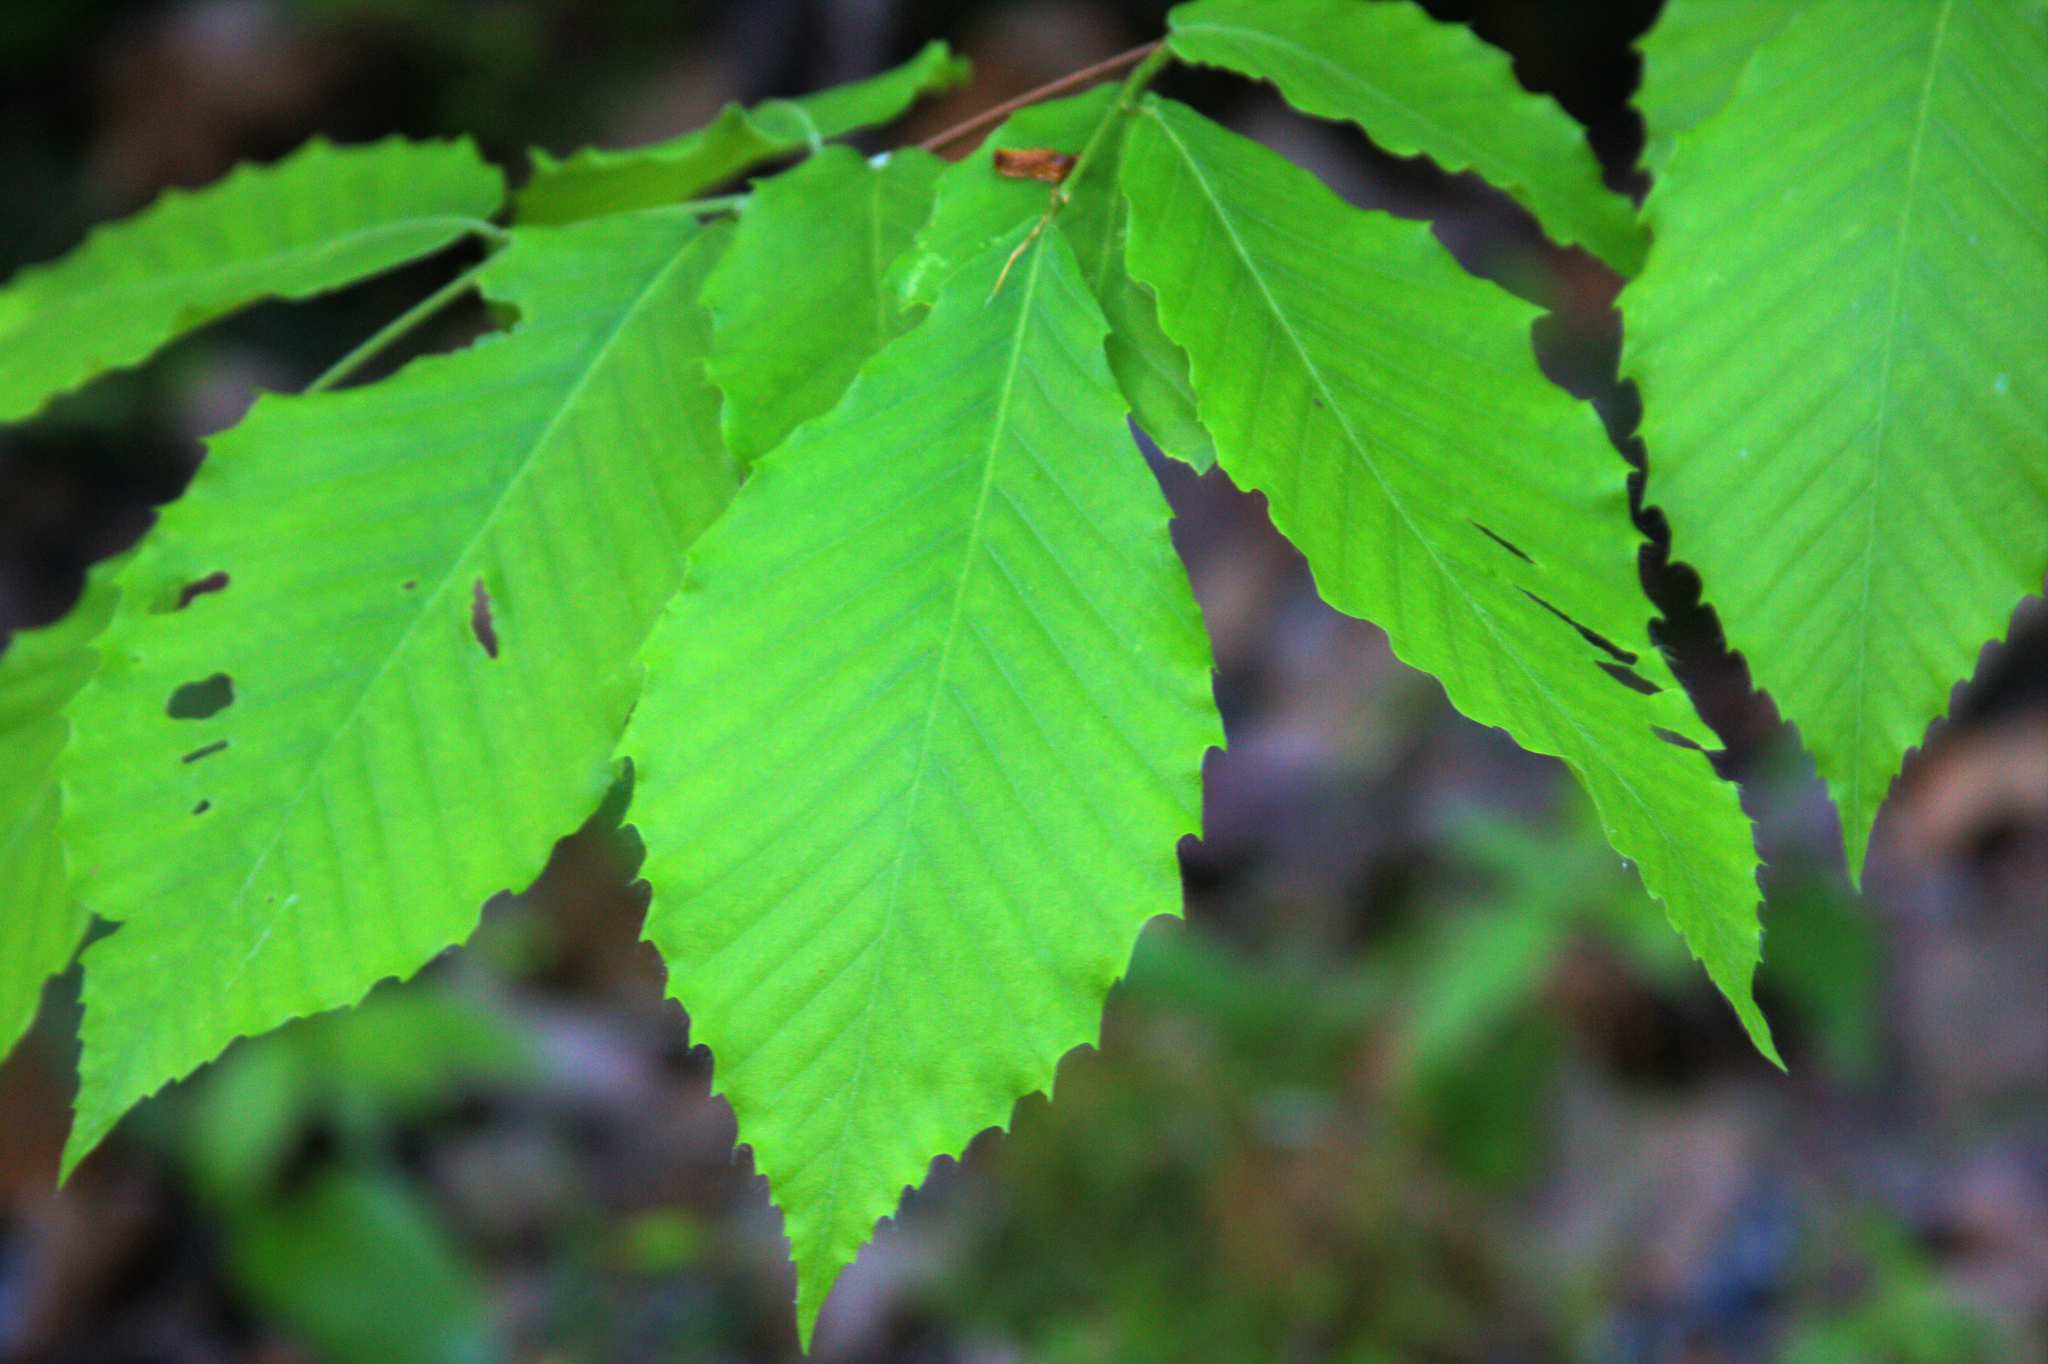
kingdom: Plantae
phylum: Tracheophyta
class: Magnoliopsida
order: Fagales
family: Fagaceae
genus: Fagus
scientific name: Fagus grandifolia
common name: American beech
